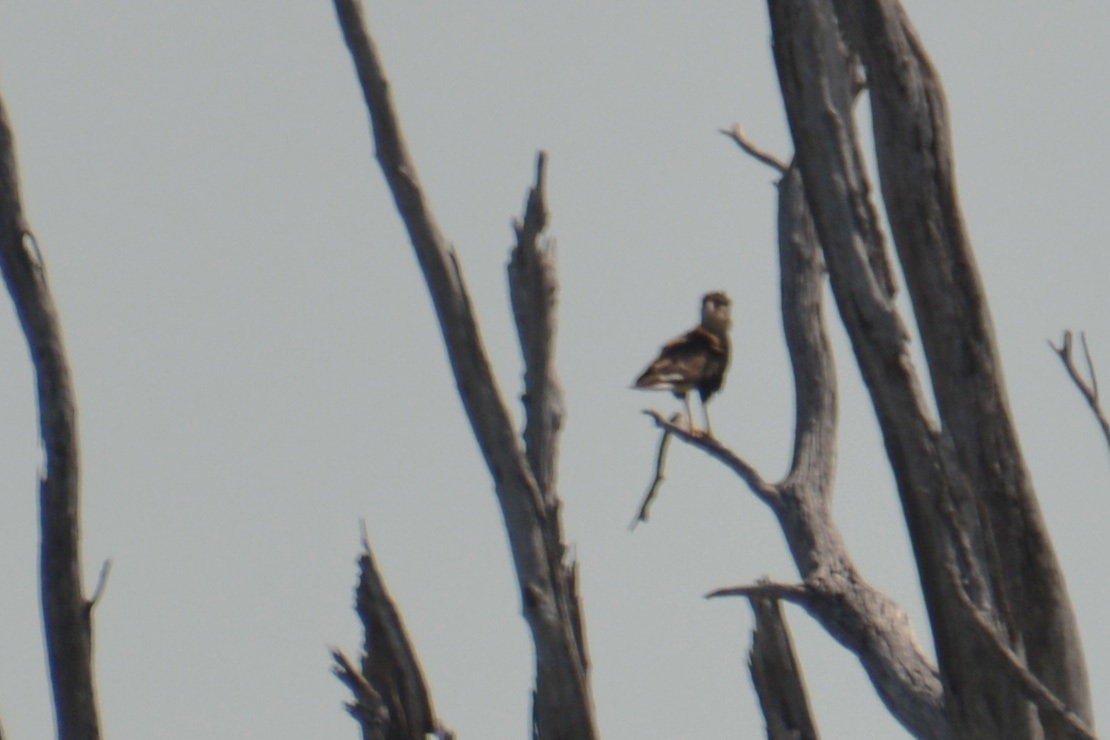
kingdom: Animalia
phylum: Chordata
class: Aves
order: Falconiformes
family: Falconidae
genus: Caracara
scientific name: Caracara plancus
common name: Southern caracara
